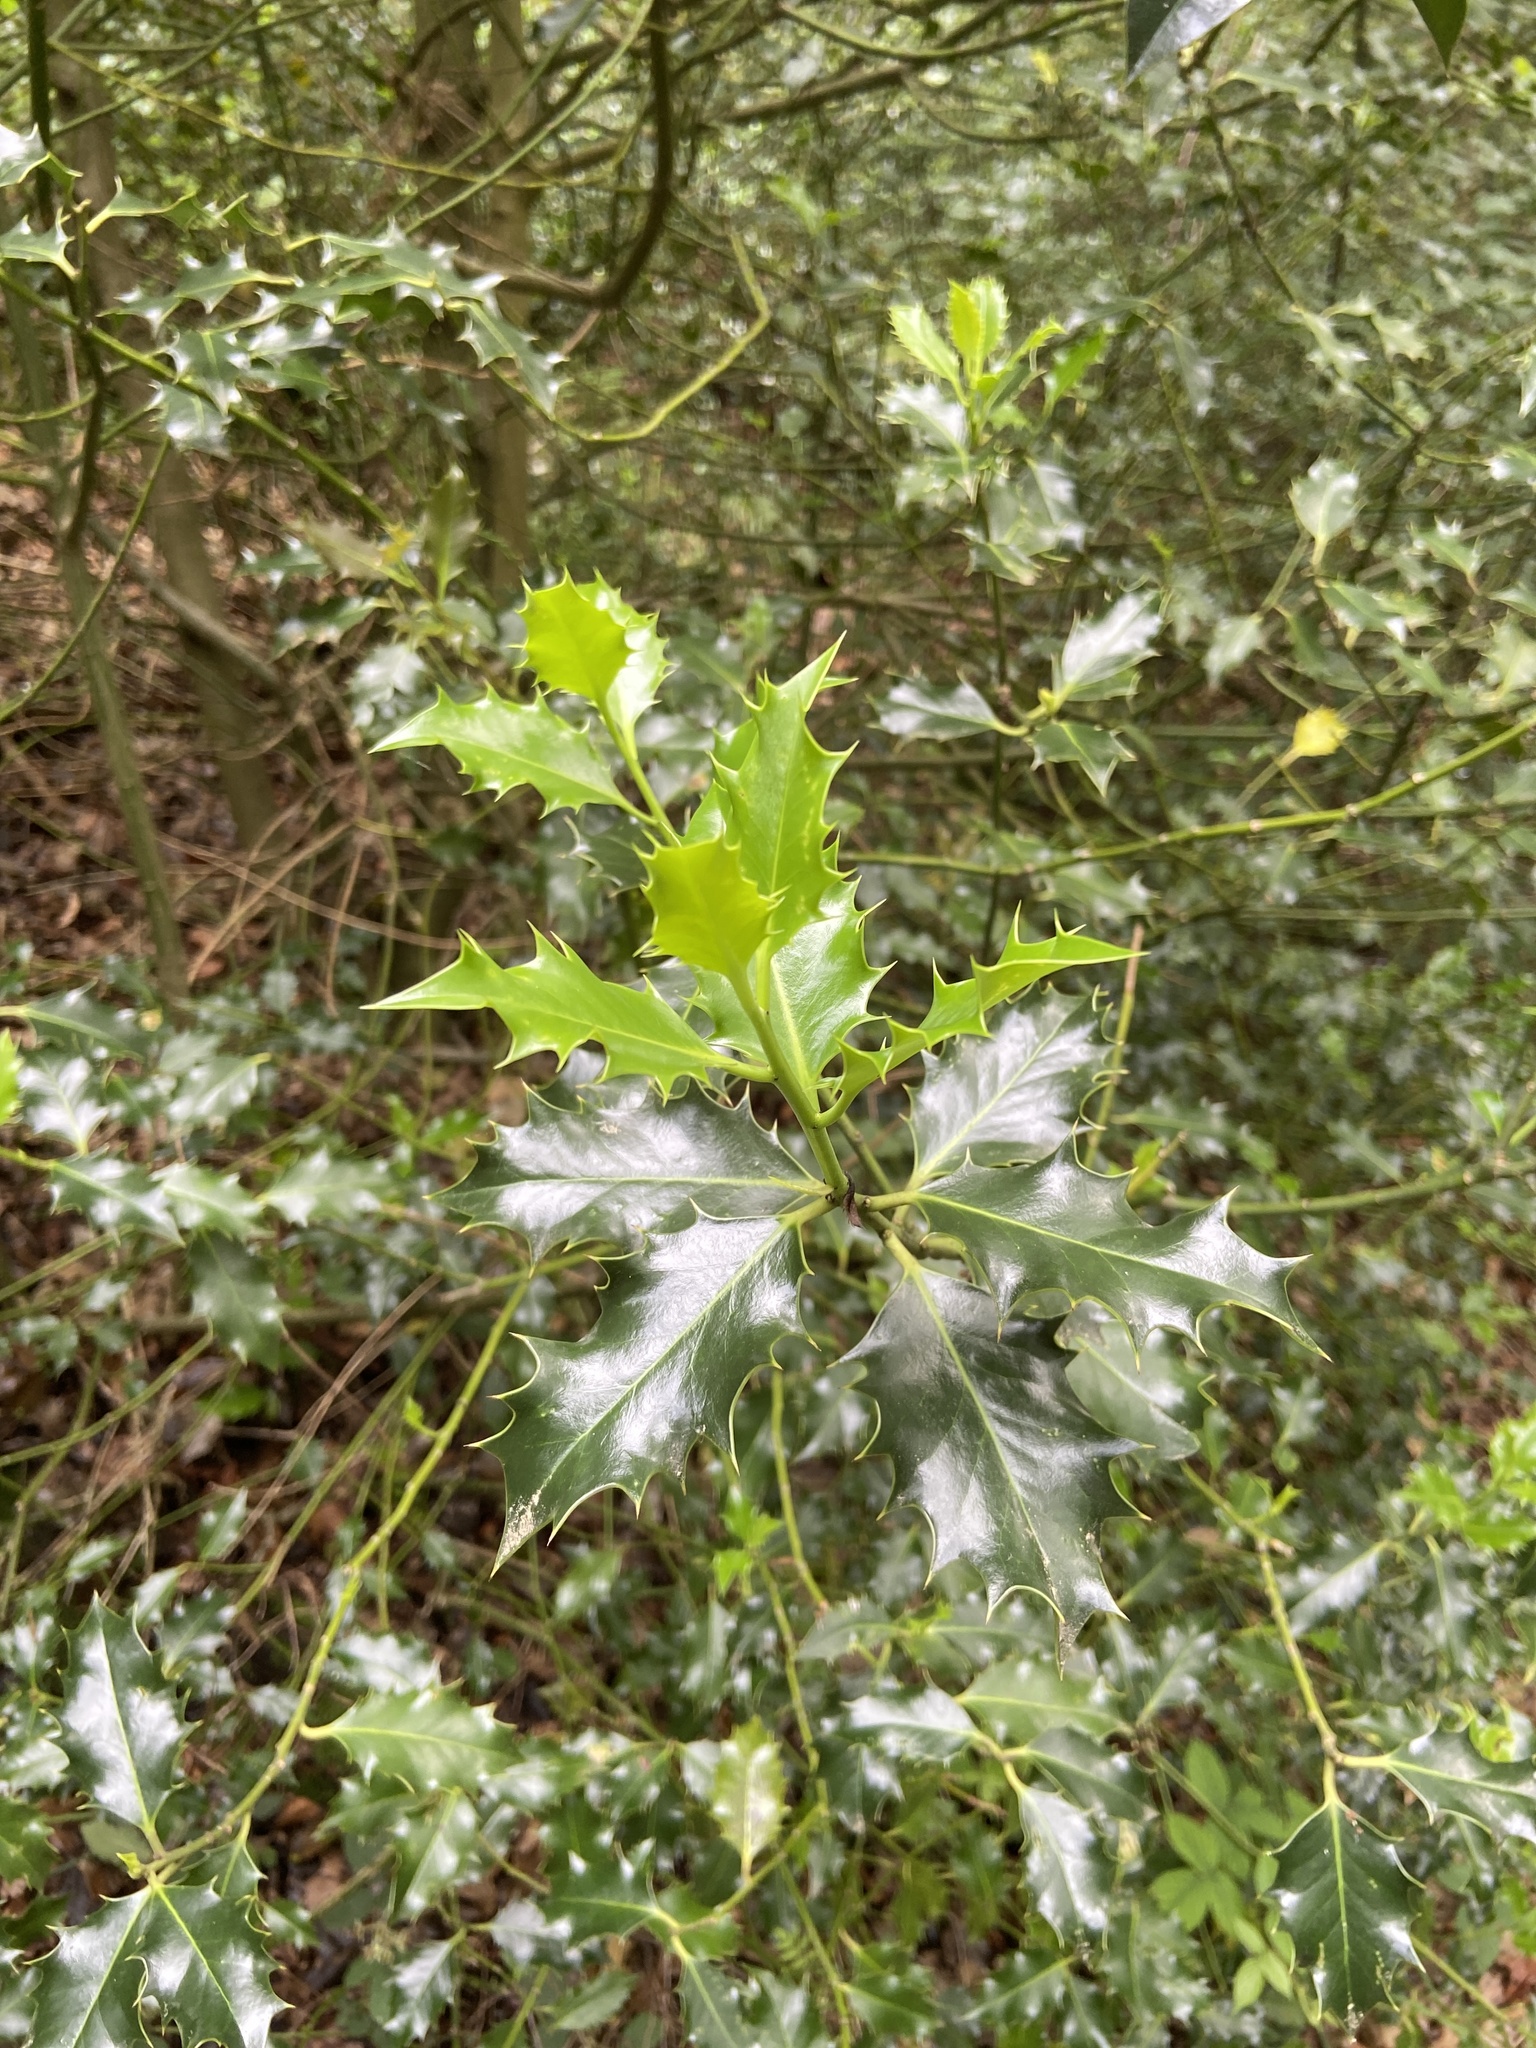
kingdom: Plantae
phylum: Tracheophyta
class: Magnoliopsida
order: Aquifoliales
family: Aquifoliaceae
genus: Ilex
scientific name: Ilex aquifolium
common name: English holly
